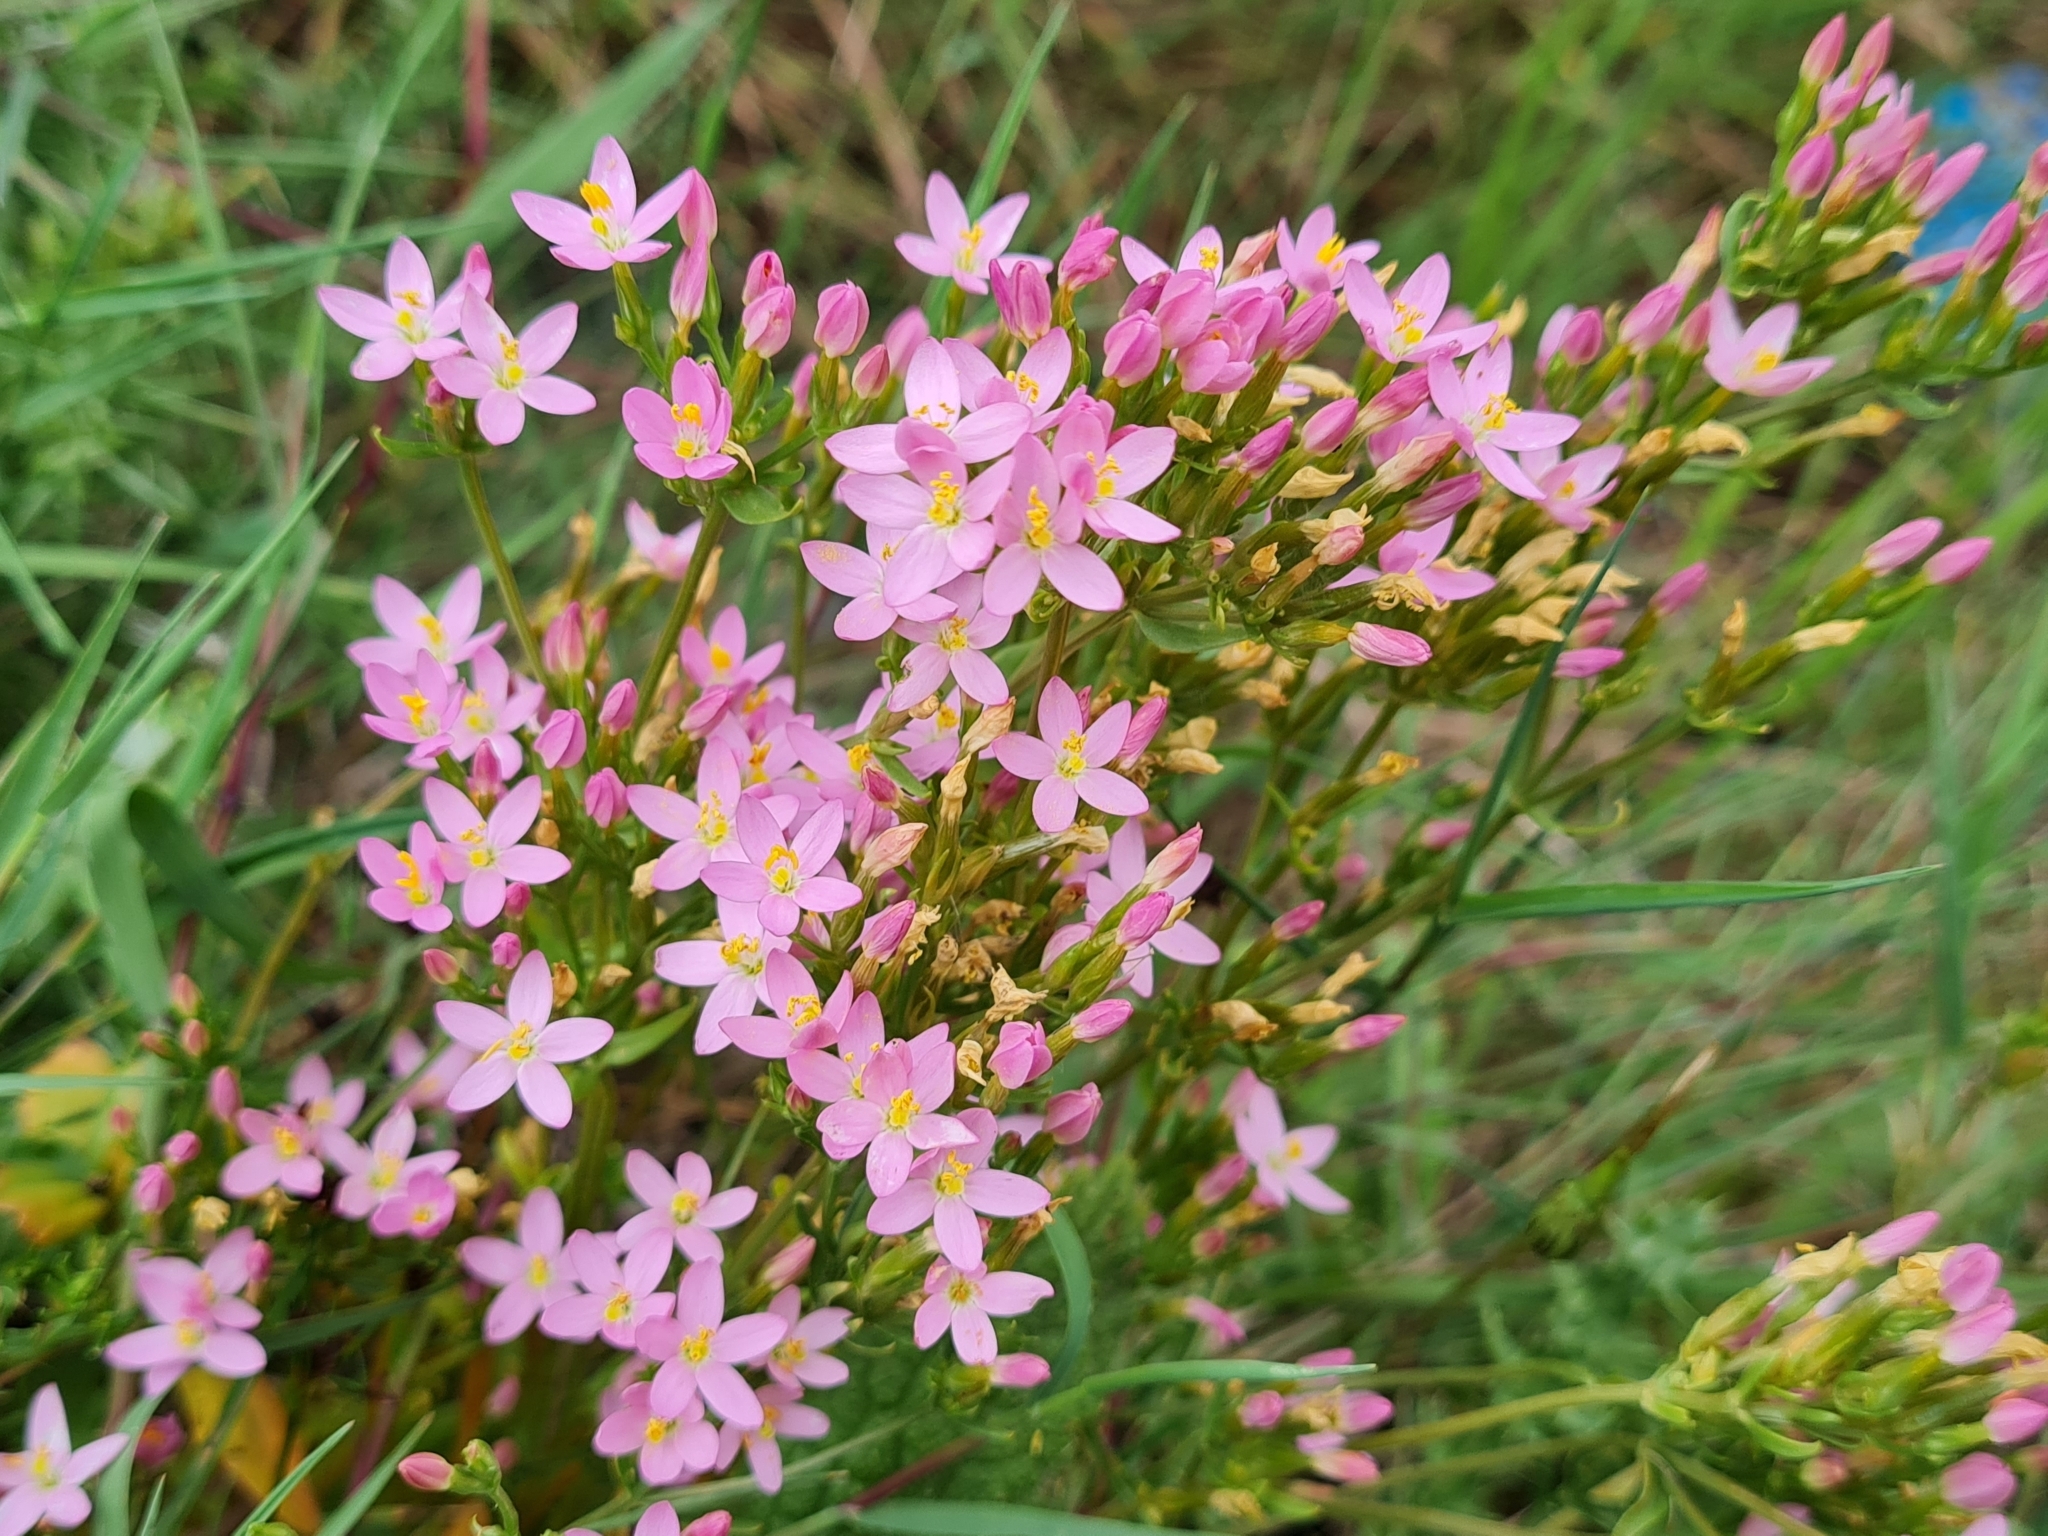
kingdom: Plantae
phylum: Tracheophyta
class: Magnoliopsida
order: Gentianales
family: Gentianaceae
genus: Centaurium
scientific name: Centaurium erythraea
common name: Common centaury
